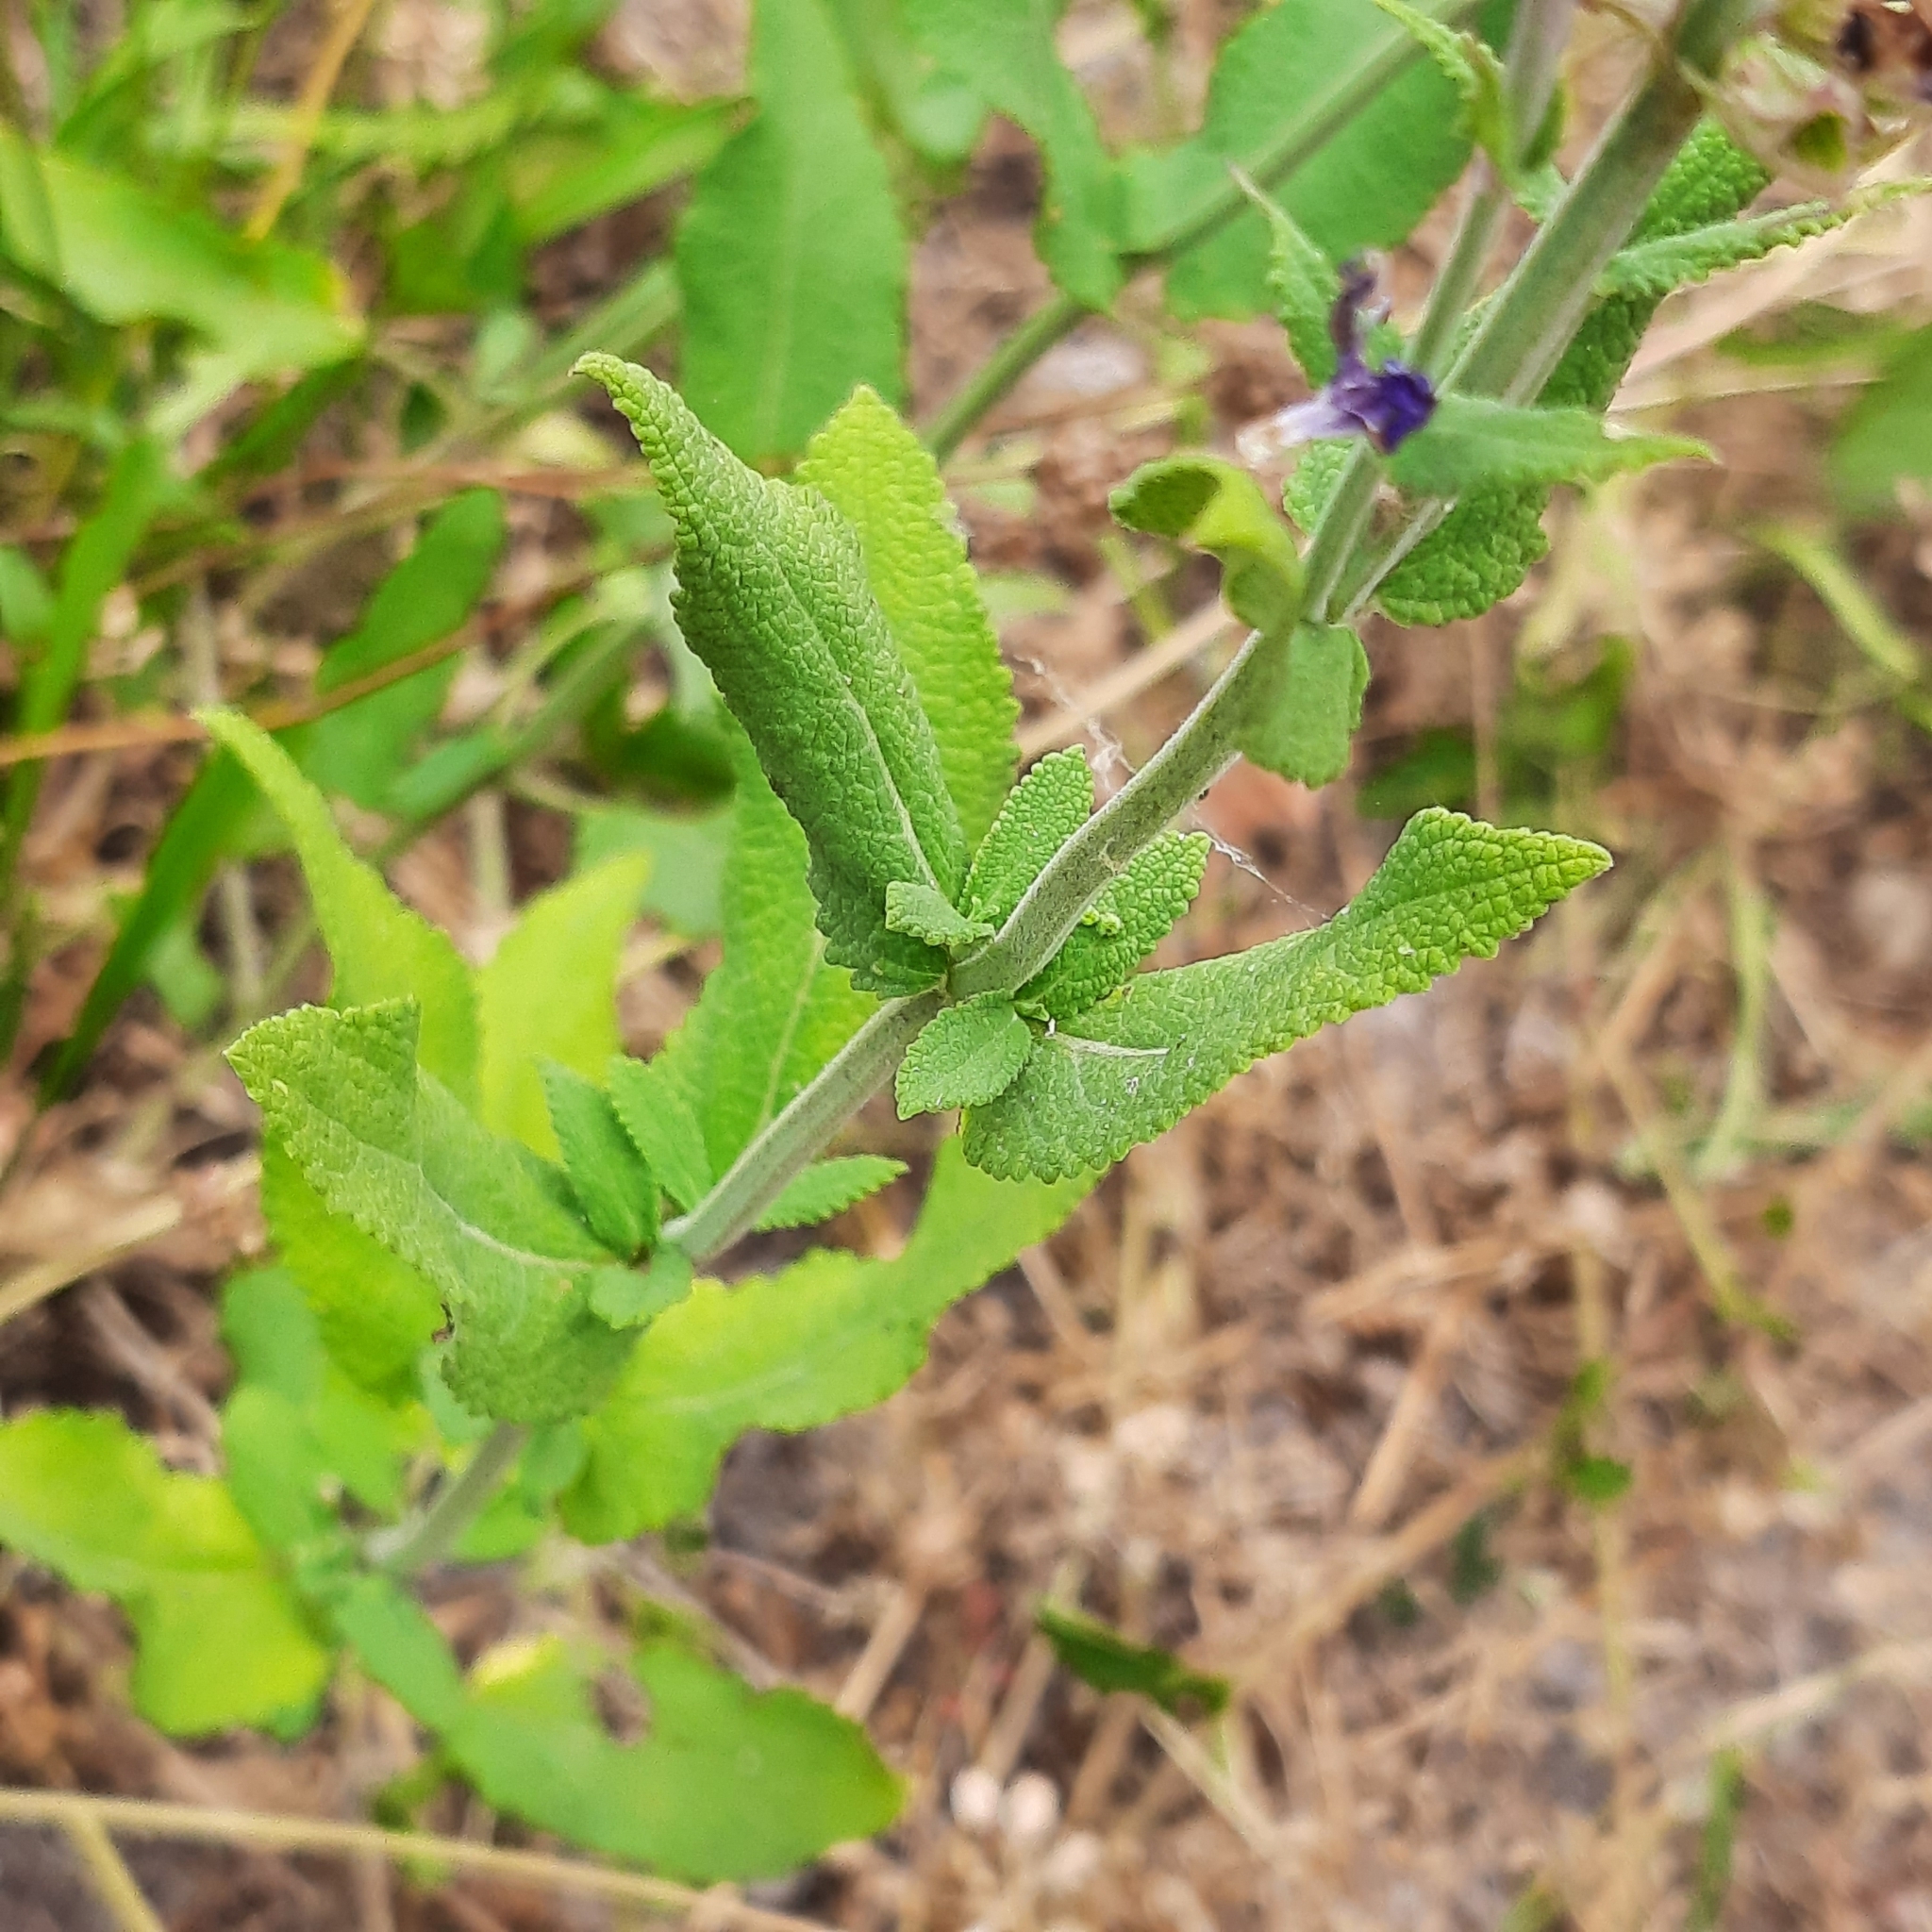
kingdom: Plantae
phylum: Tracheophyta
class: Magnoliopsida
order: Lamiales
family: Lamiaceae
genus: Salvia
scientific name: Salvia nemorosa
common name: Balkan clary
